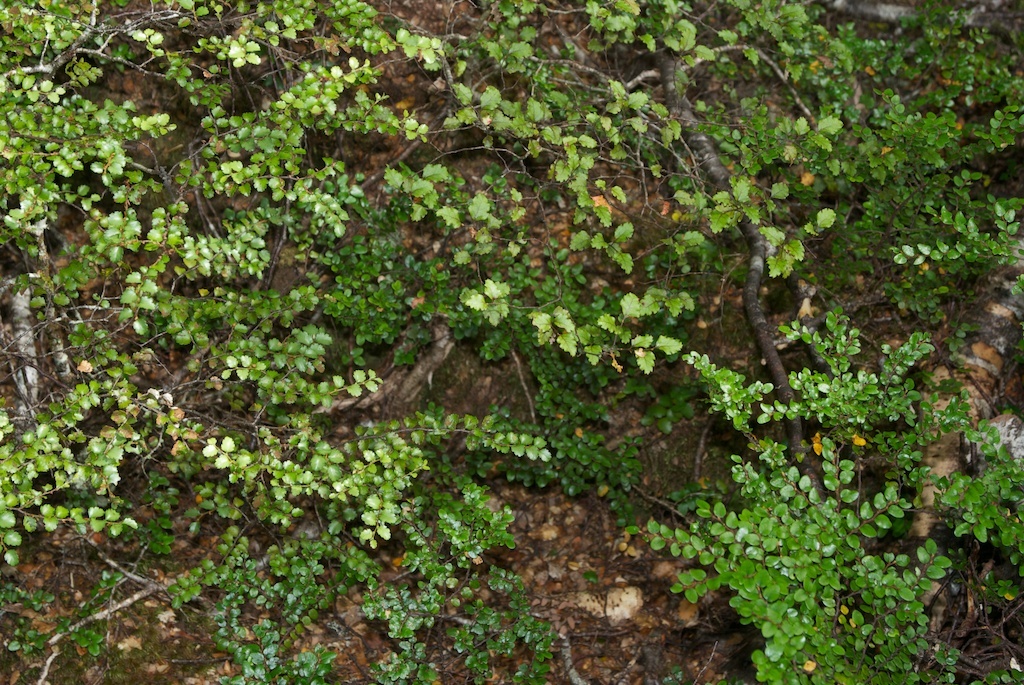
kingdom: Plantae
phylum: Tracheophyta
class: Magnoliopsida
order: Fagales
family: Nothofagaceae
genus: Nothofagus
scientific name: Nothofagus menziesii
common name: Silver beech
